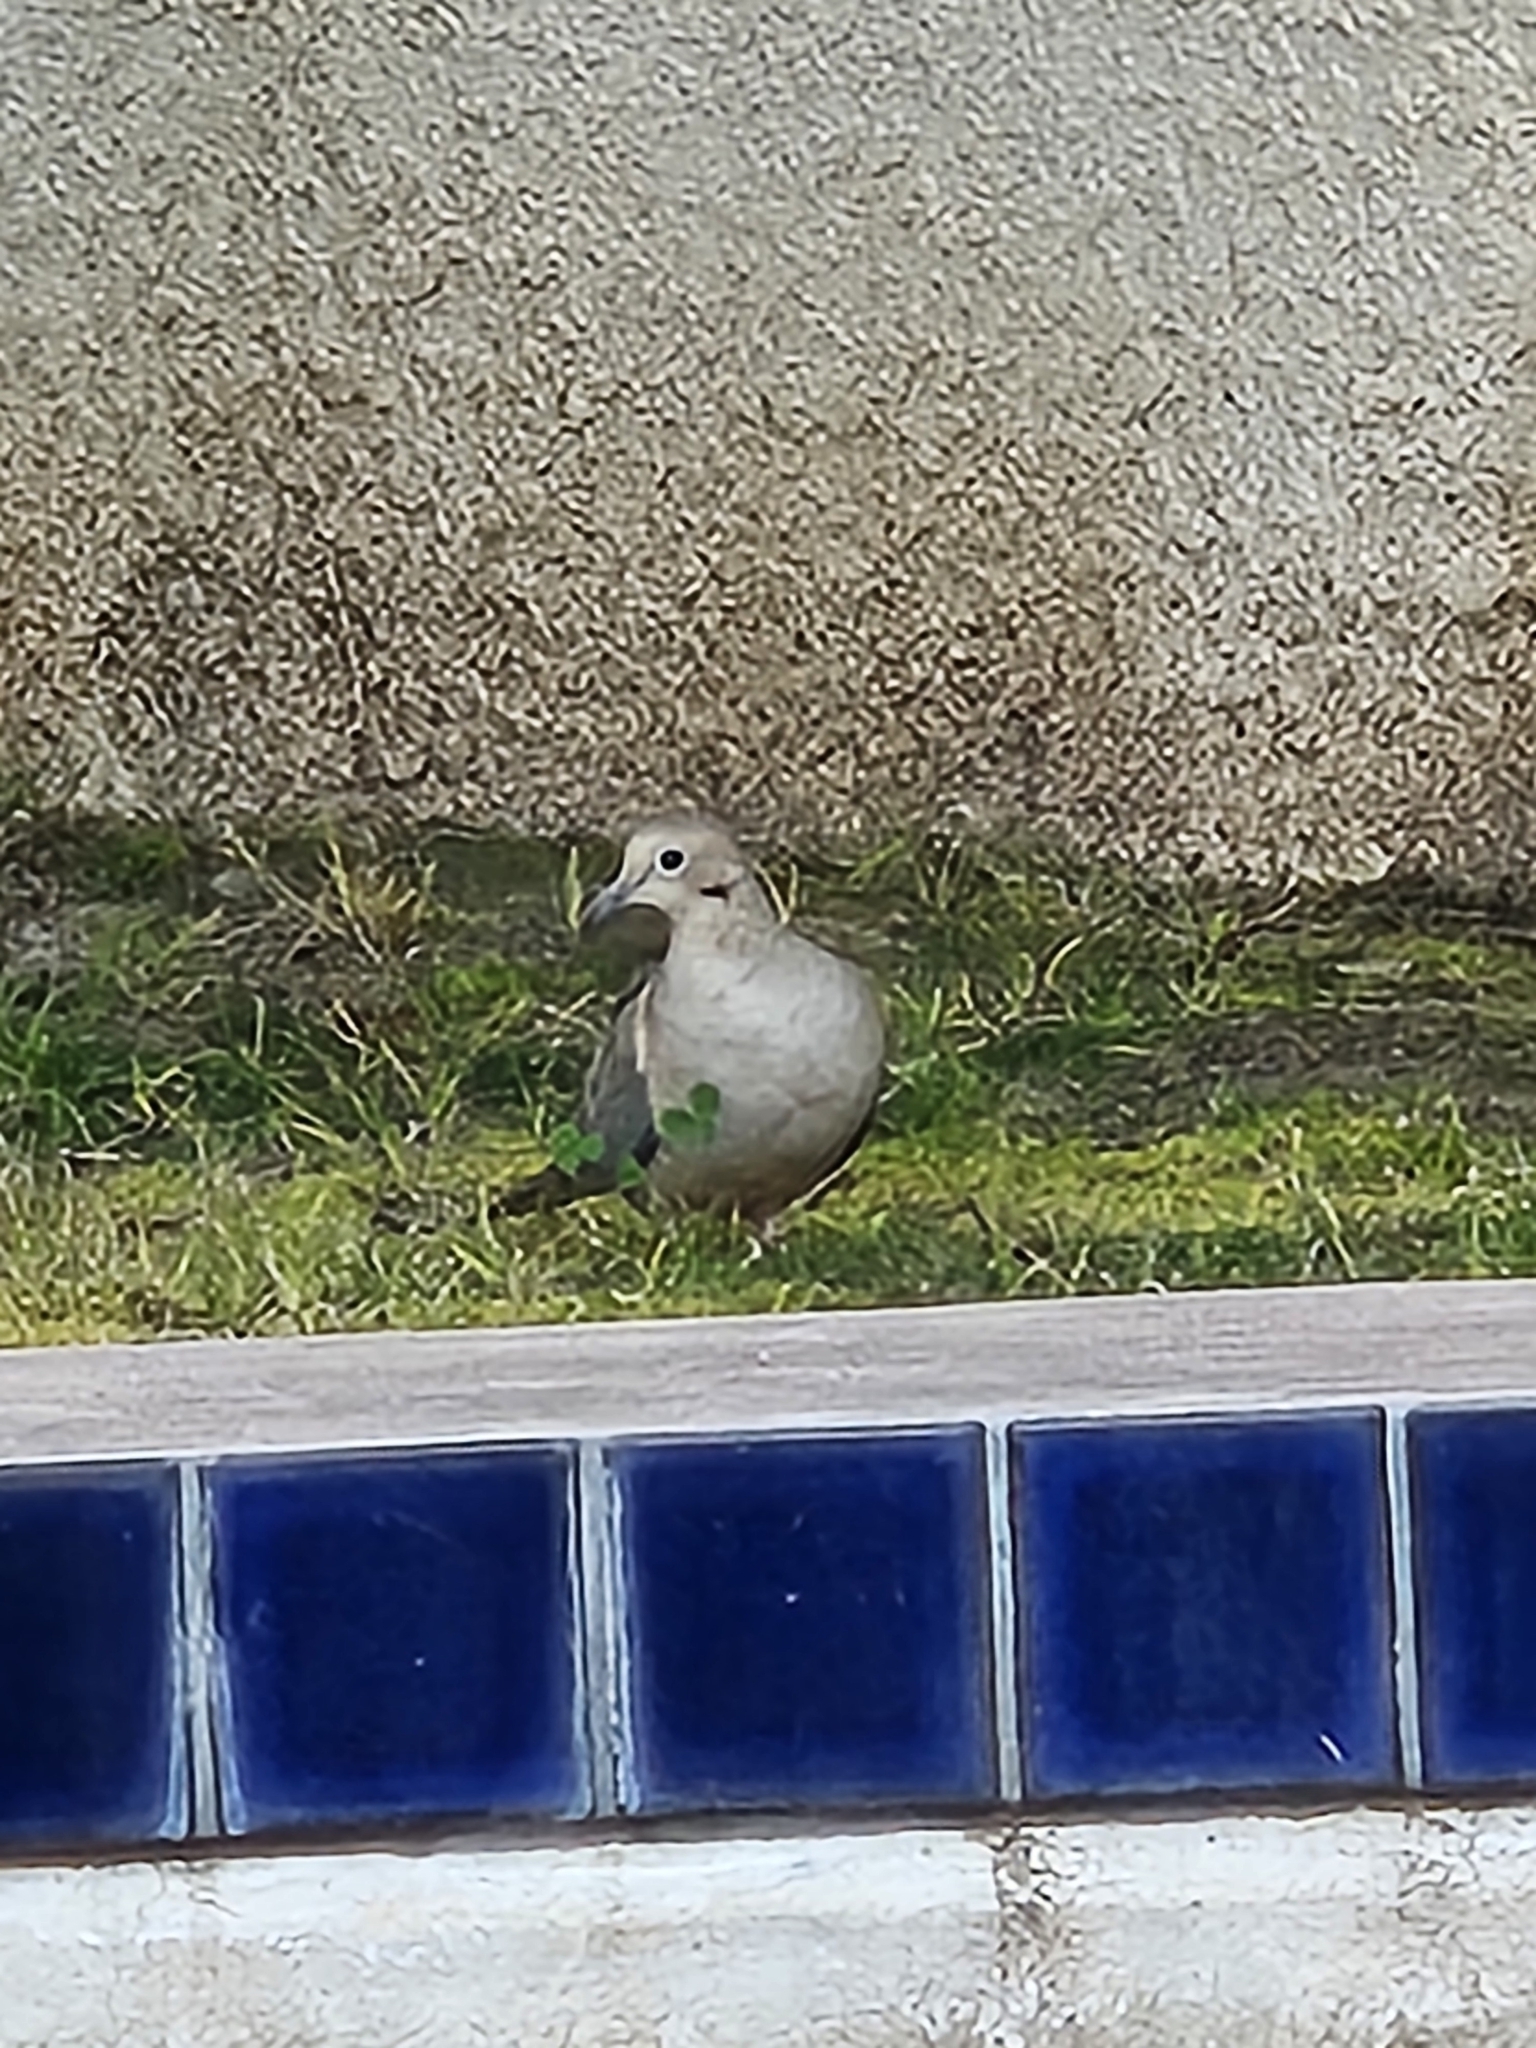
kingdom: Animalia
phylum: Chordata
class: Aves
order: Columbiformes
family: Columbidae
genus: Zenaida
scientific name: Zenaida macroura
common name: Mourning dove
